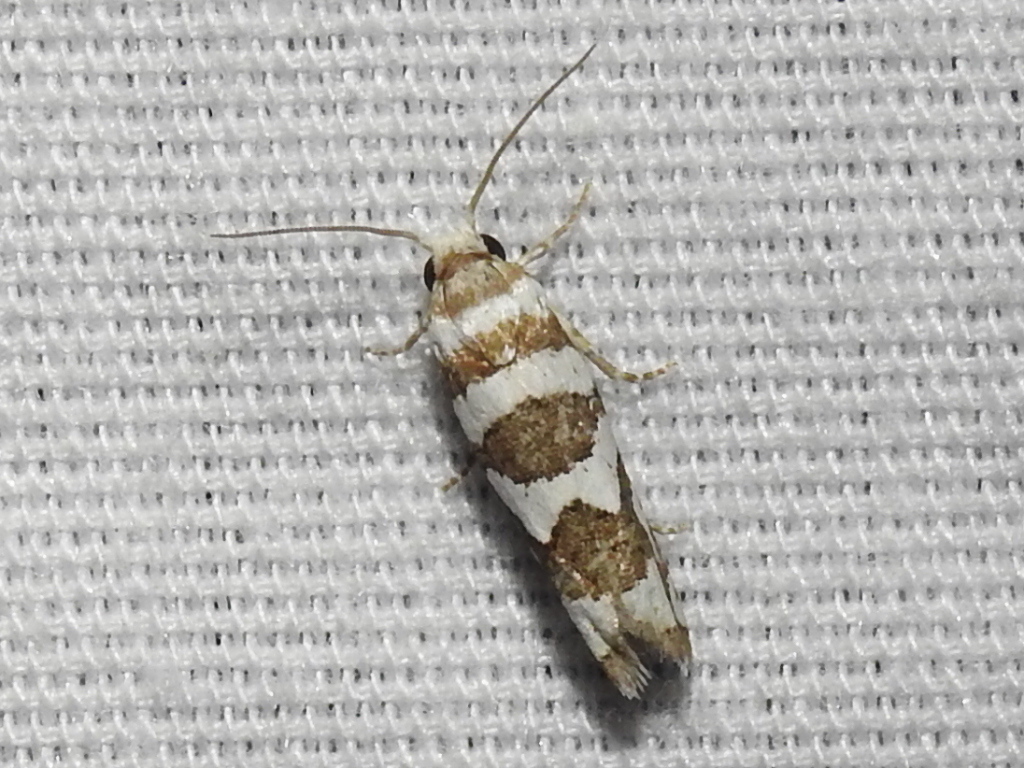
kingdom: Animalia
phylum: Arthropoda
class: Insecta
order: Lepidoptera
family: Tortricidae
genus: Pelochrista
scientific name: Pelochrista robinsonana
